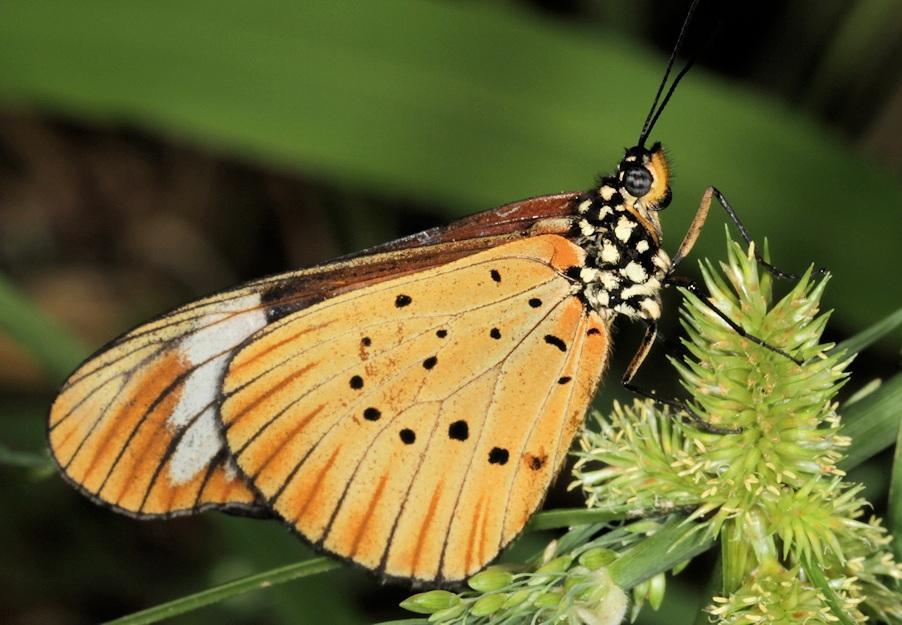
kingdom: Animalia
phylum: Arthropoda
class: Insecta
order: Lepidoptera
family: Nymphalidae
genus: Acraea
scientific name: Acraea Telchinia encedon
